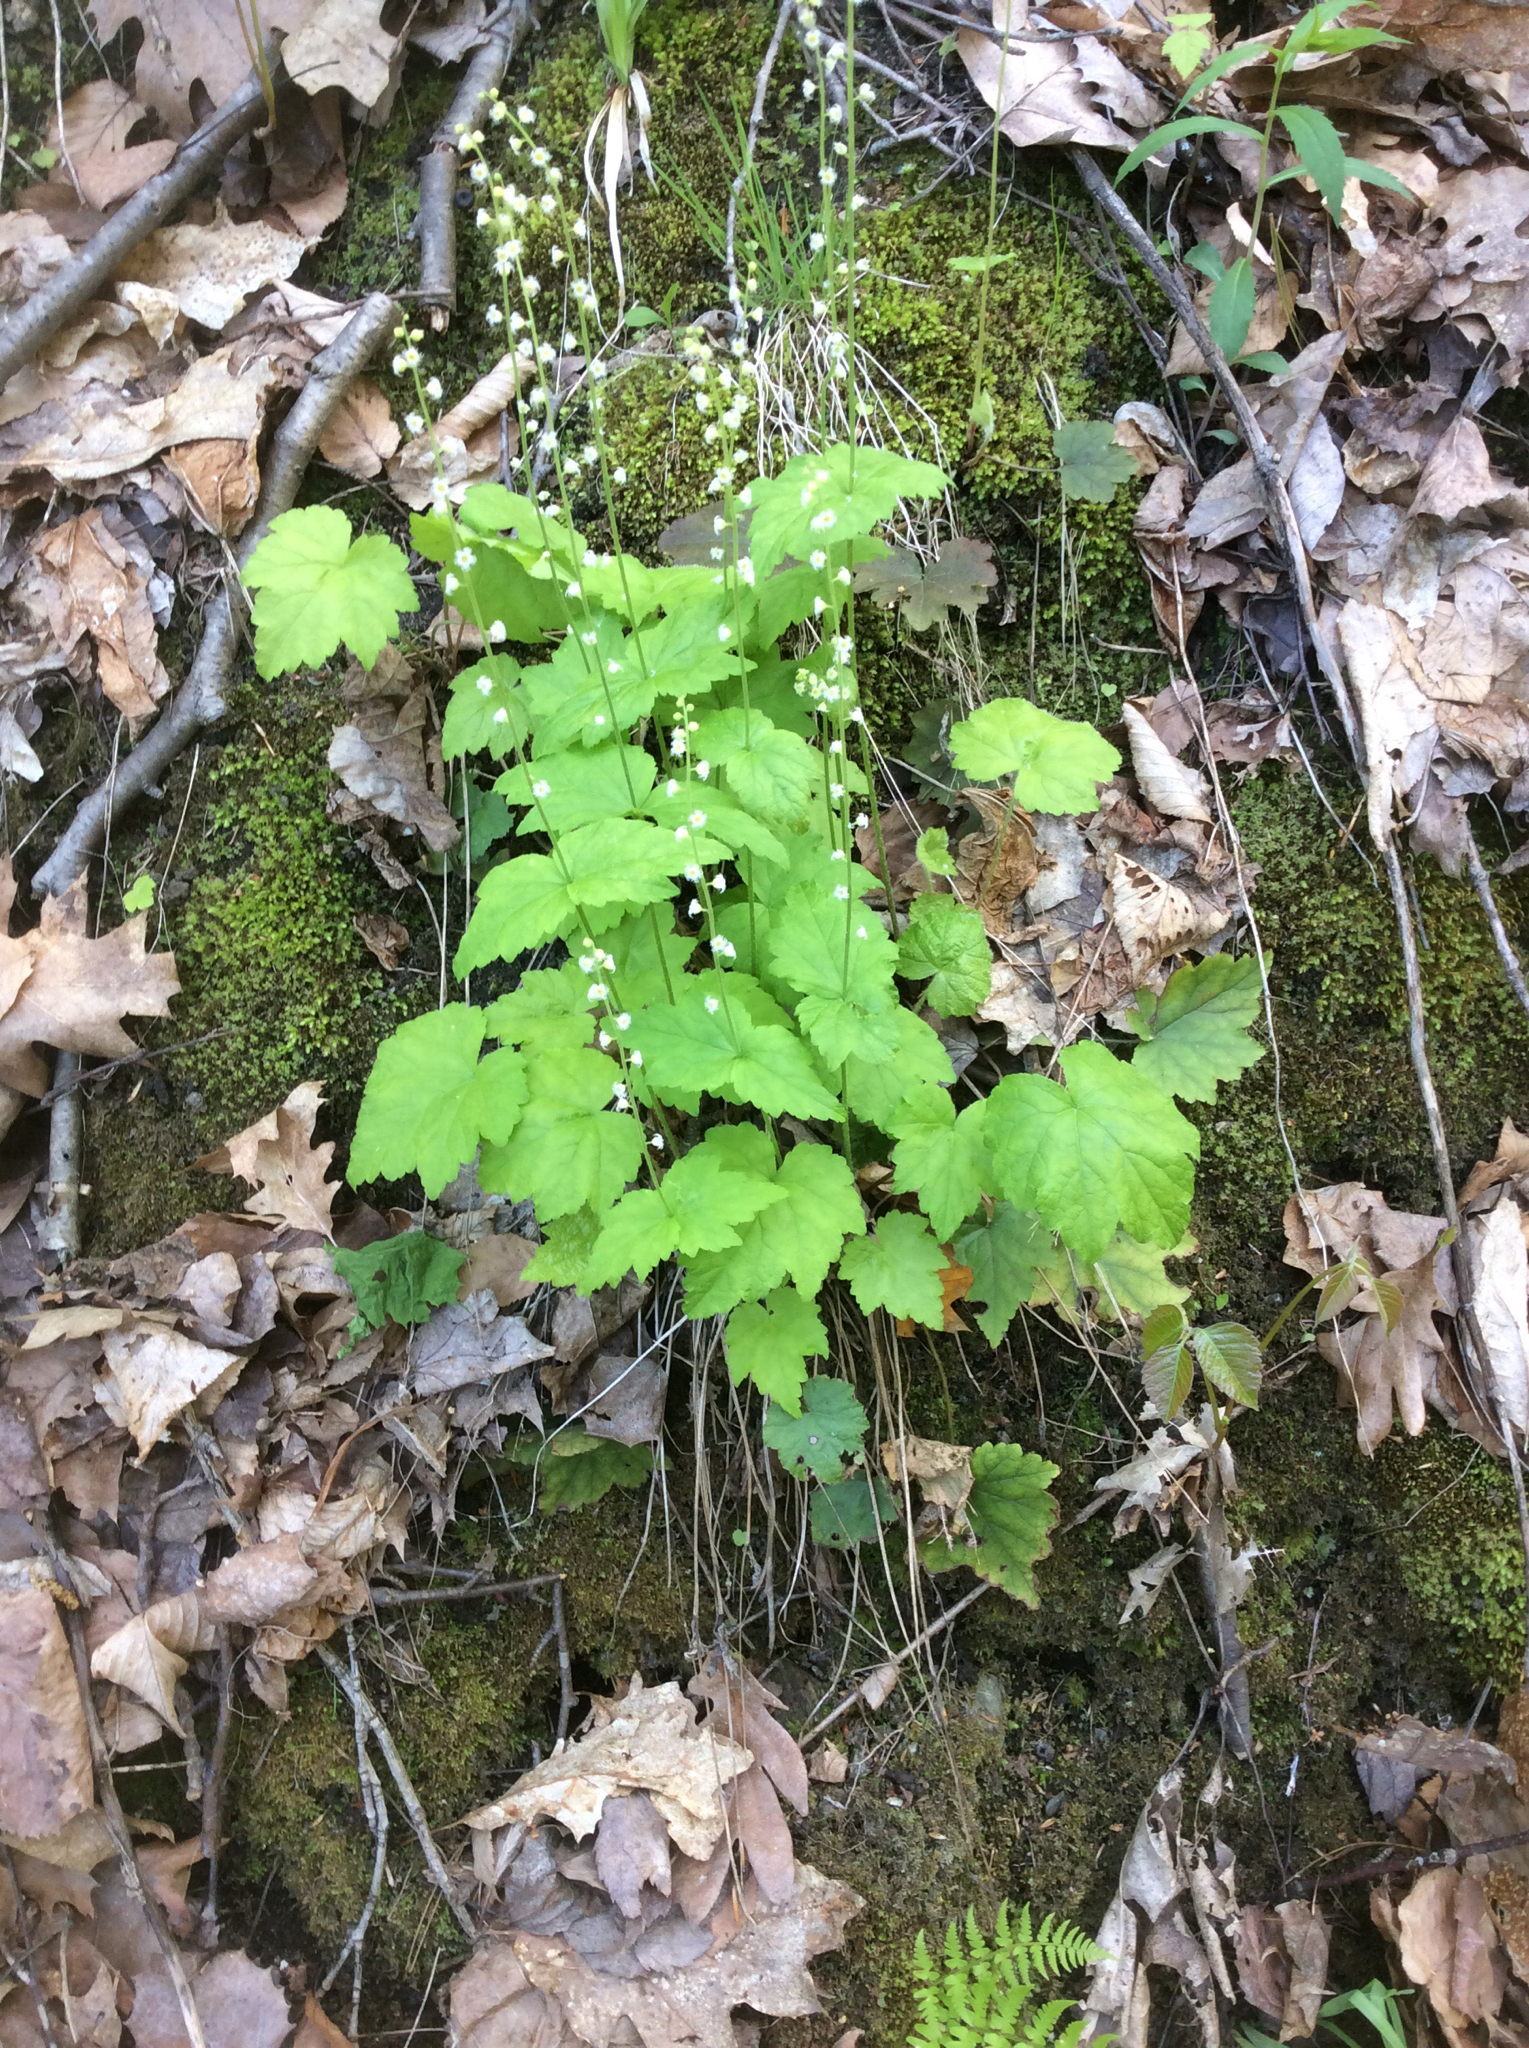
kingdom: Plantae
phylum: Tracheophyta
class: Magnoliopsida
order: Saxifragales
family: Saxifragaceae
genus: Mitella
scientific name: Mitella diphylla
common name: Coolwort
